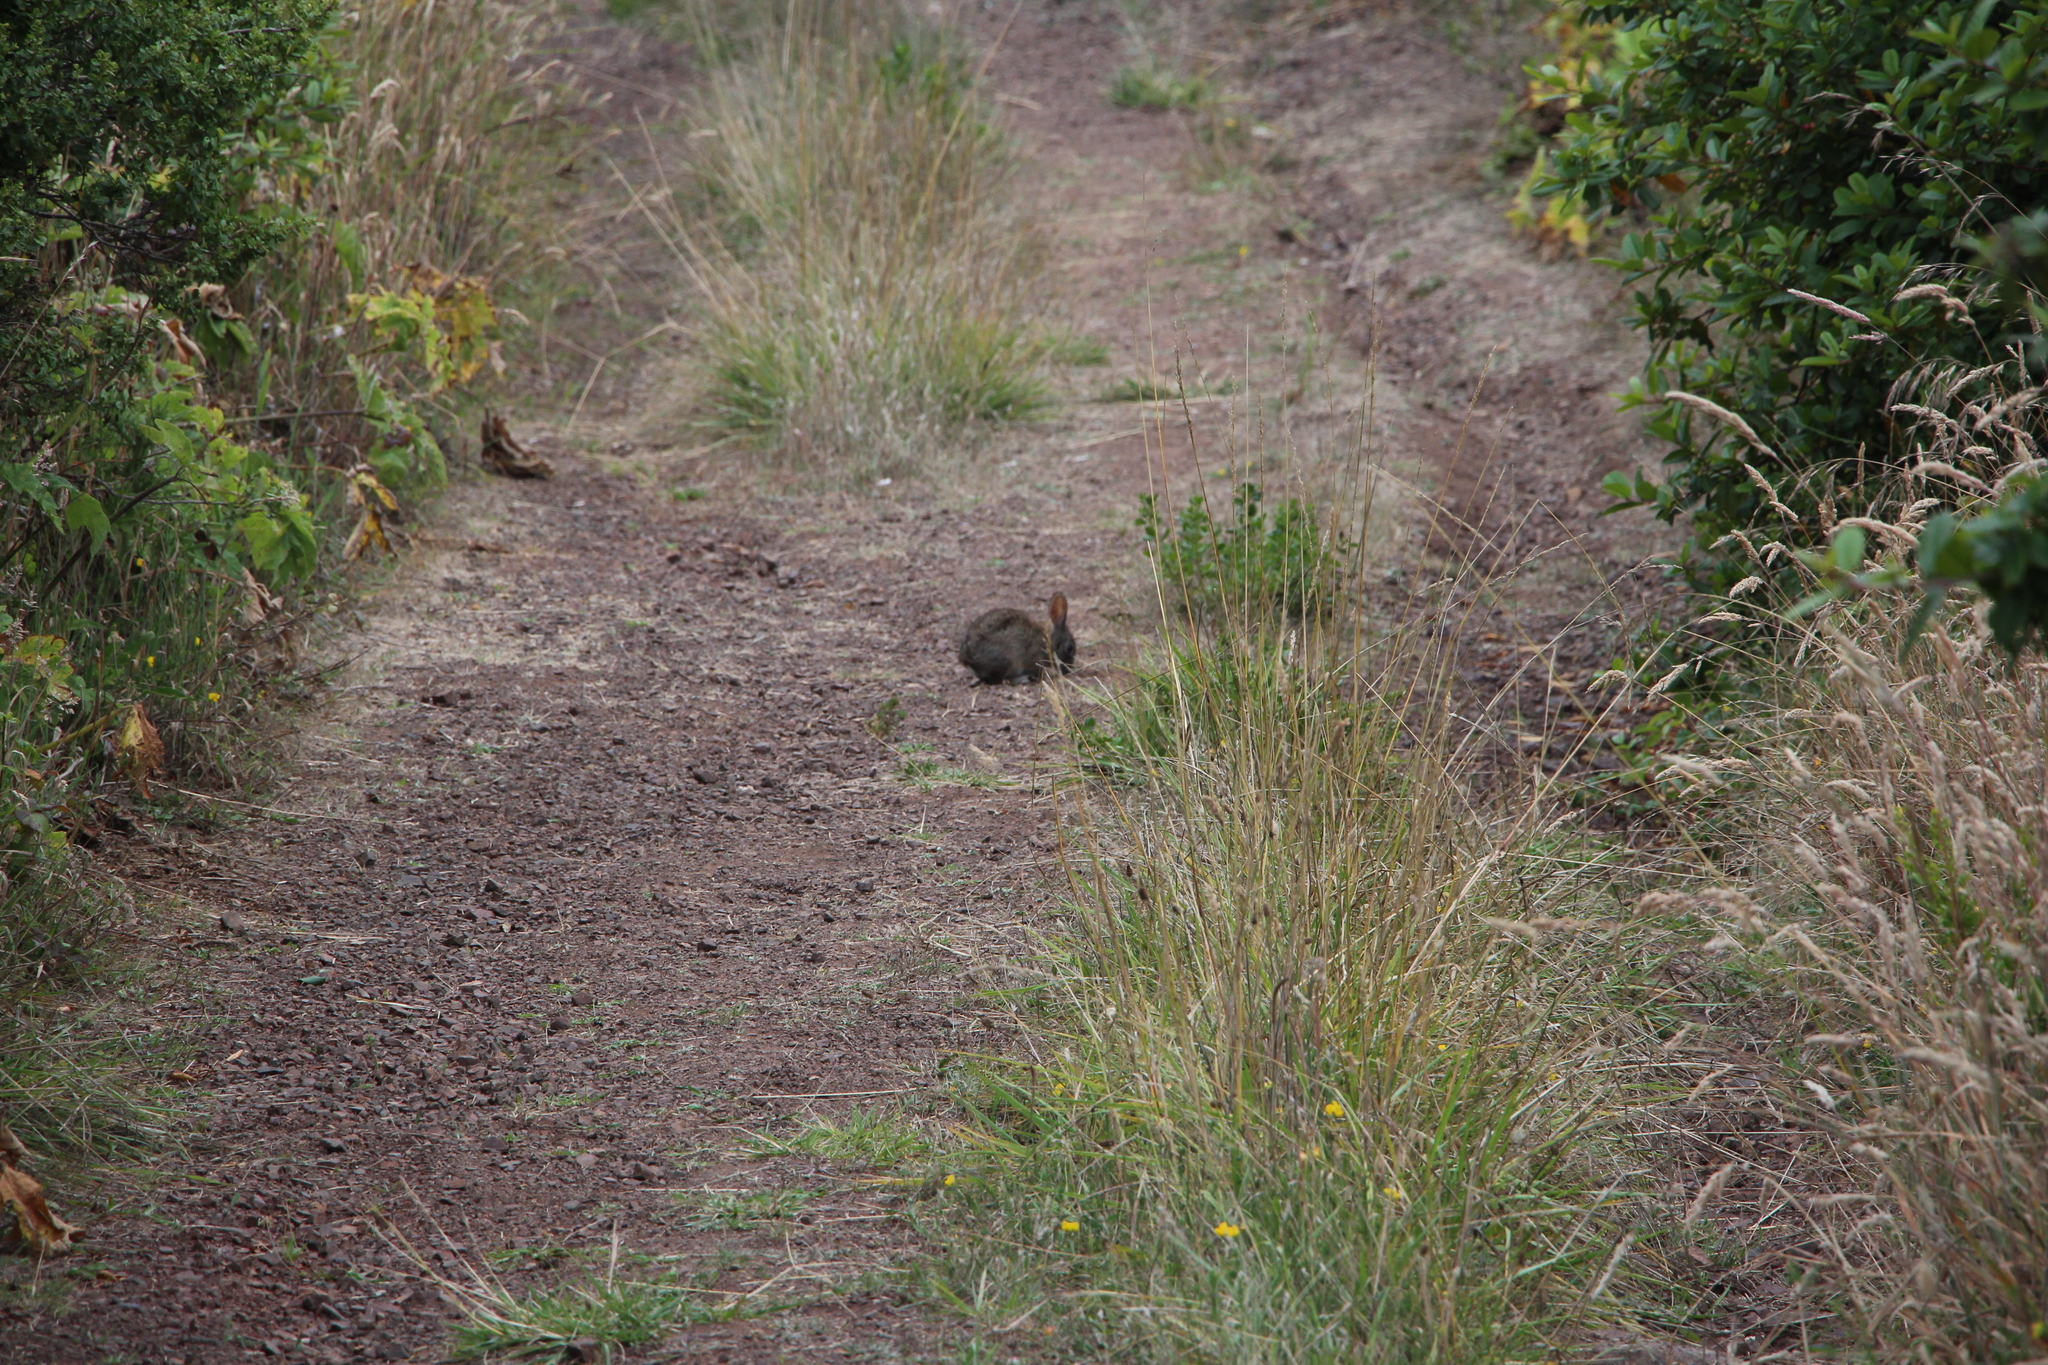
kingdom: Animalia
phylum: Chordata
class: Mammalia
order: Lagomorpha
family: Leporidae
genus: Sylvilagus
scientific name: Sylvilagus bachmani
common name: Brush rabbit
